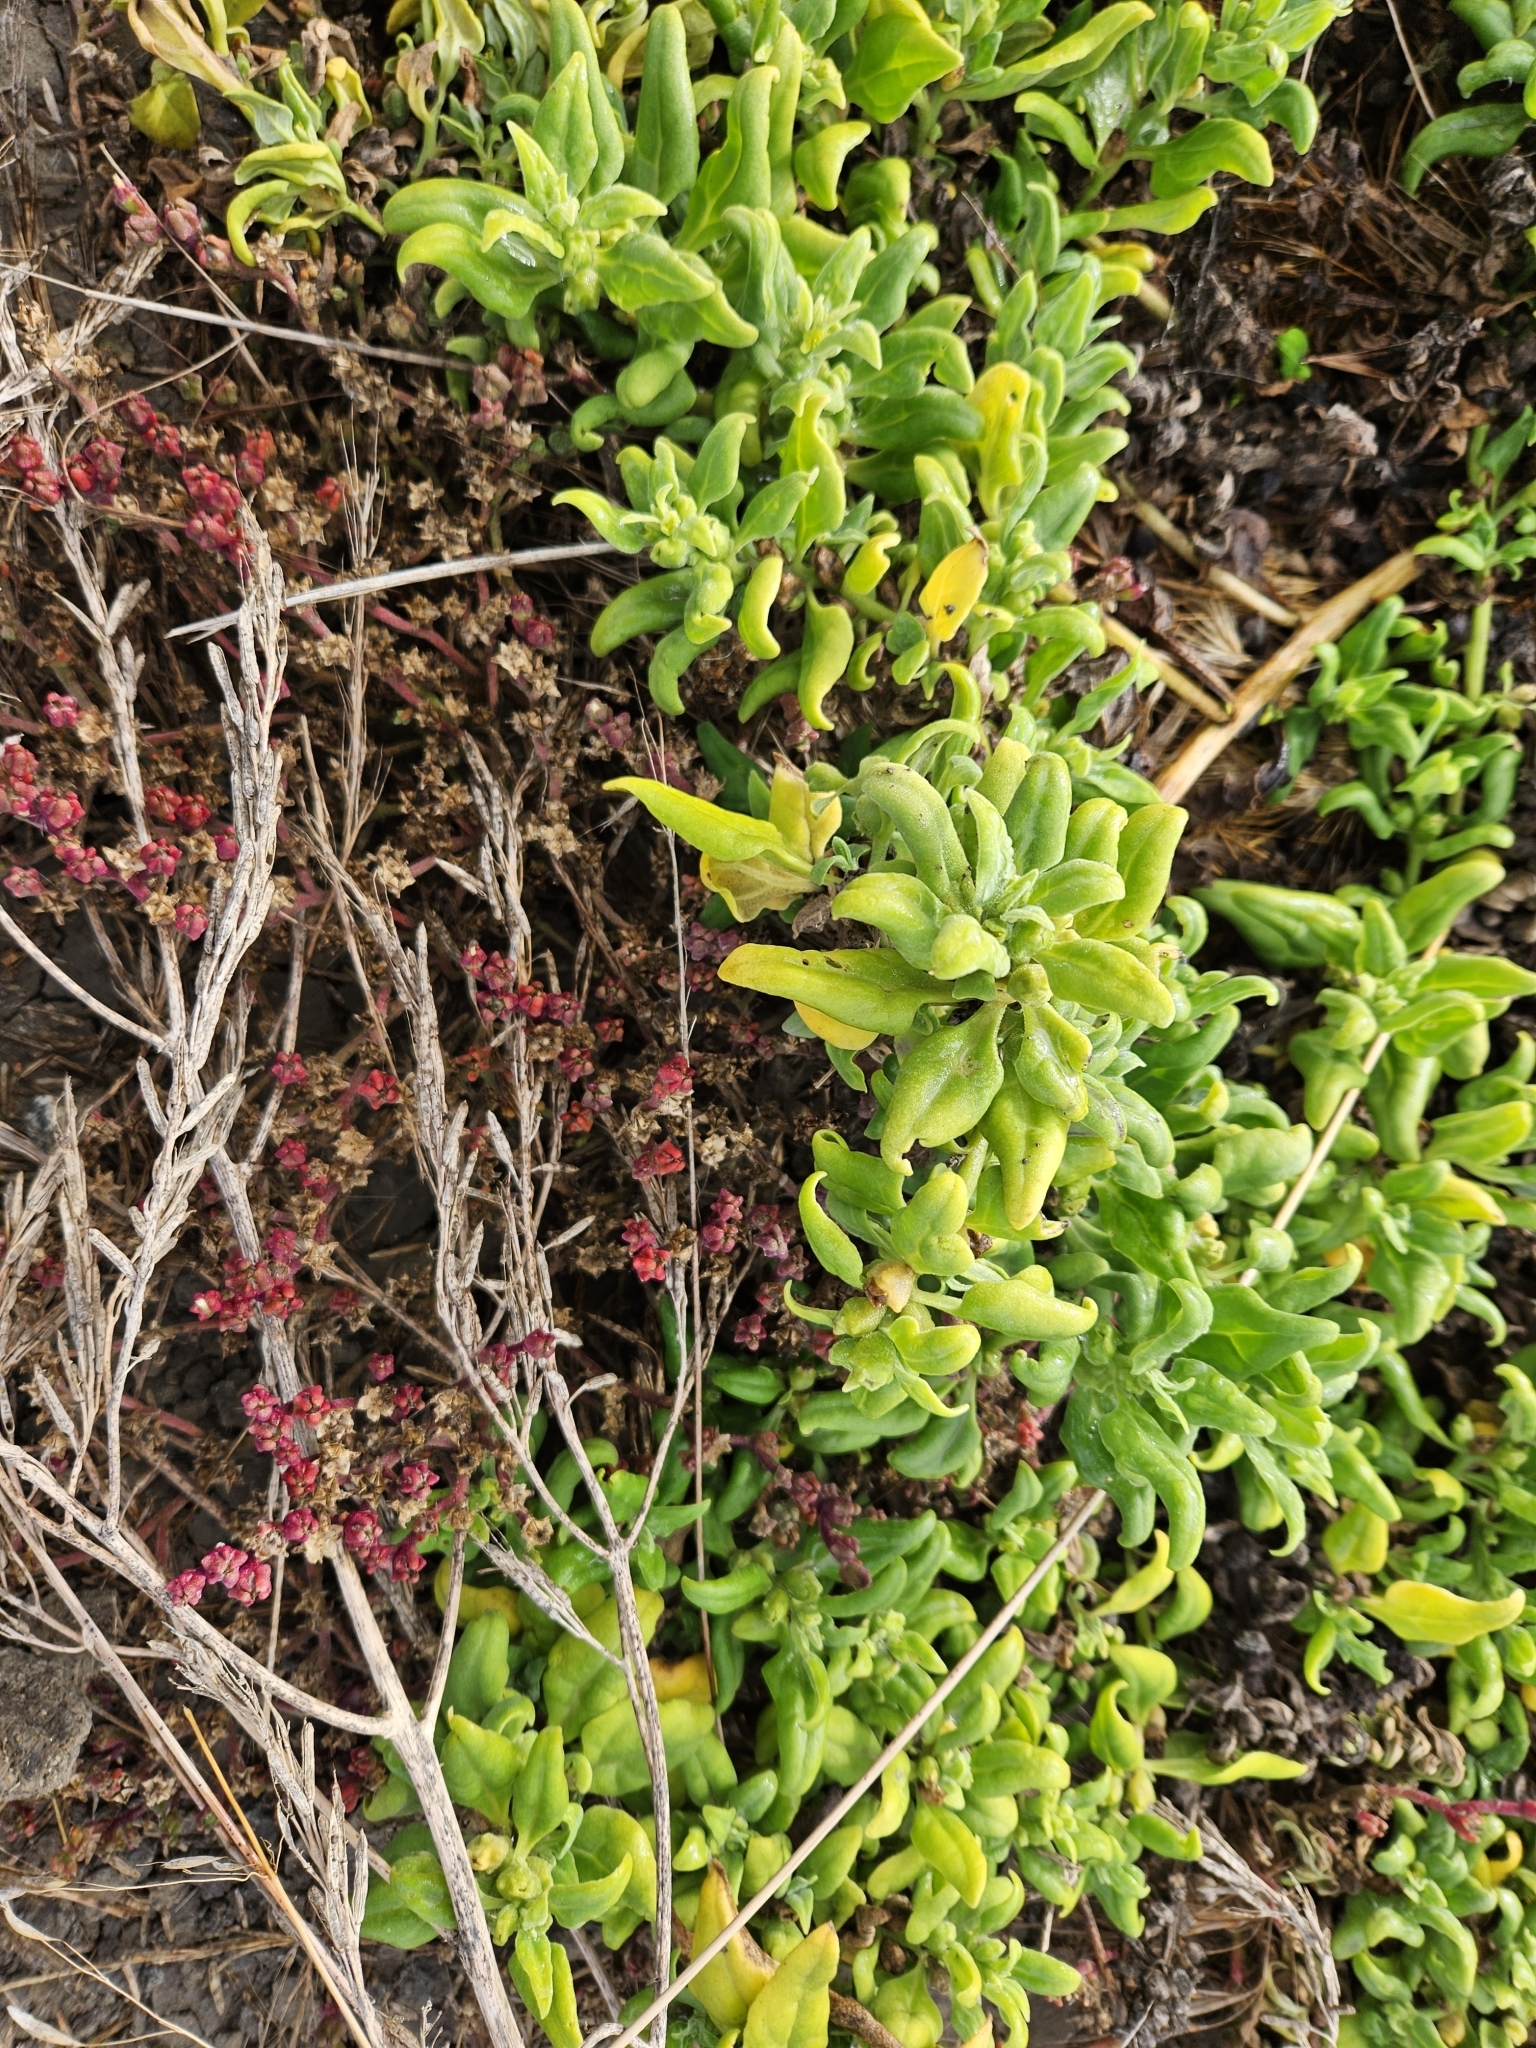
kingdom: Plantae
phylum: Tracheophyta
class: Magnoliopsida
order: Caryophyllales
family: Aizoaceae
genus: Tetragonia
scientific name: Tetragonia tetragonoides
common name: New zealand-spinach
